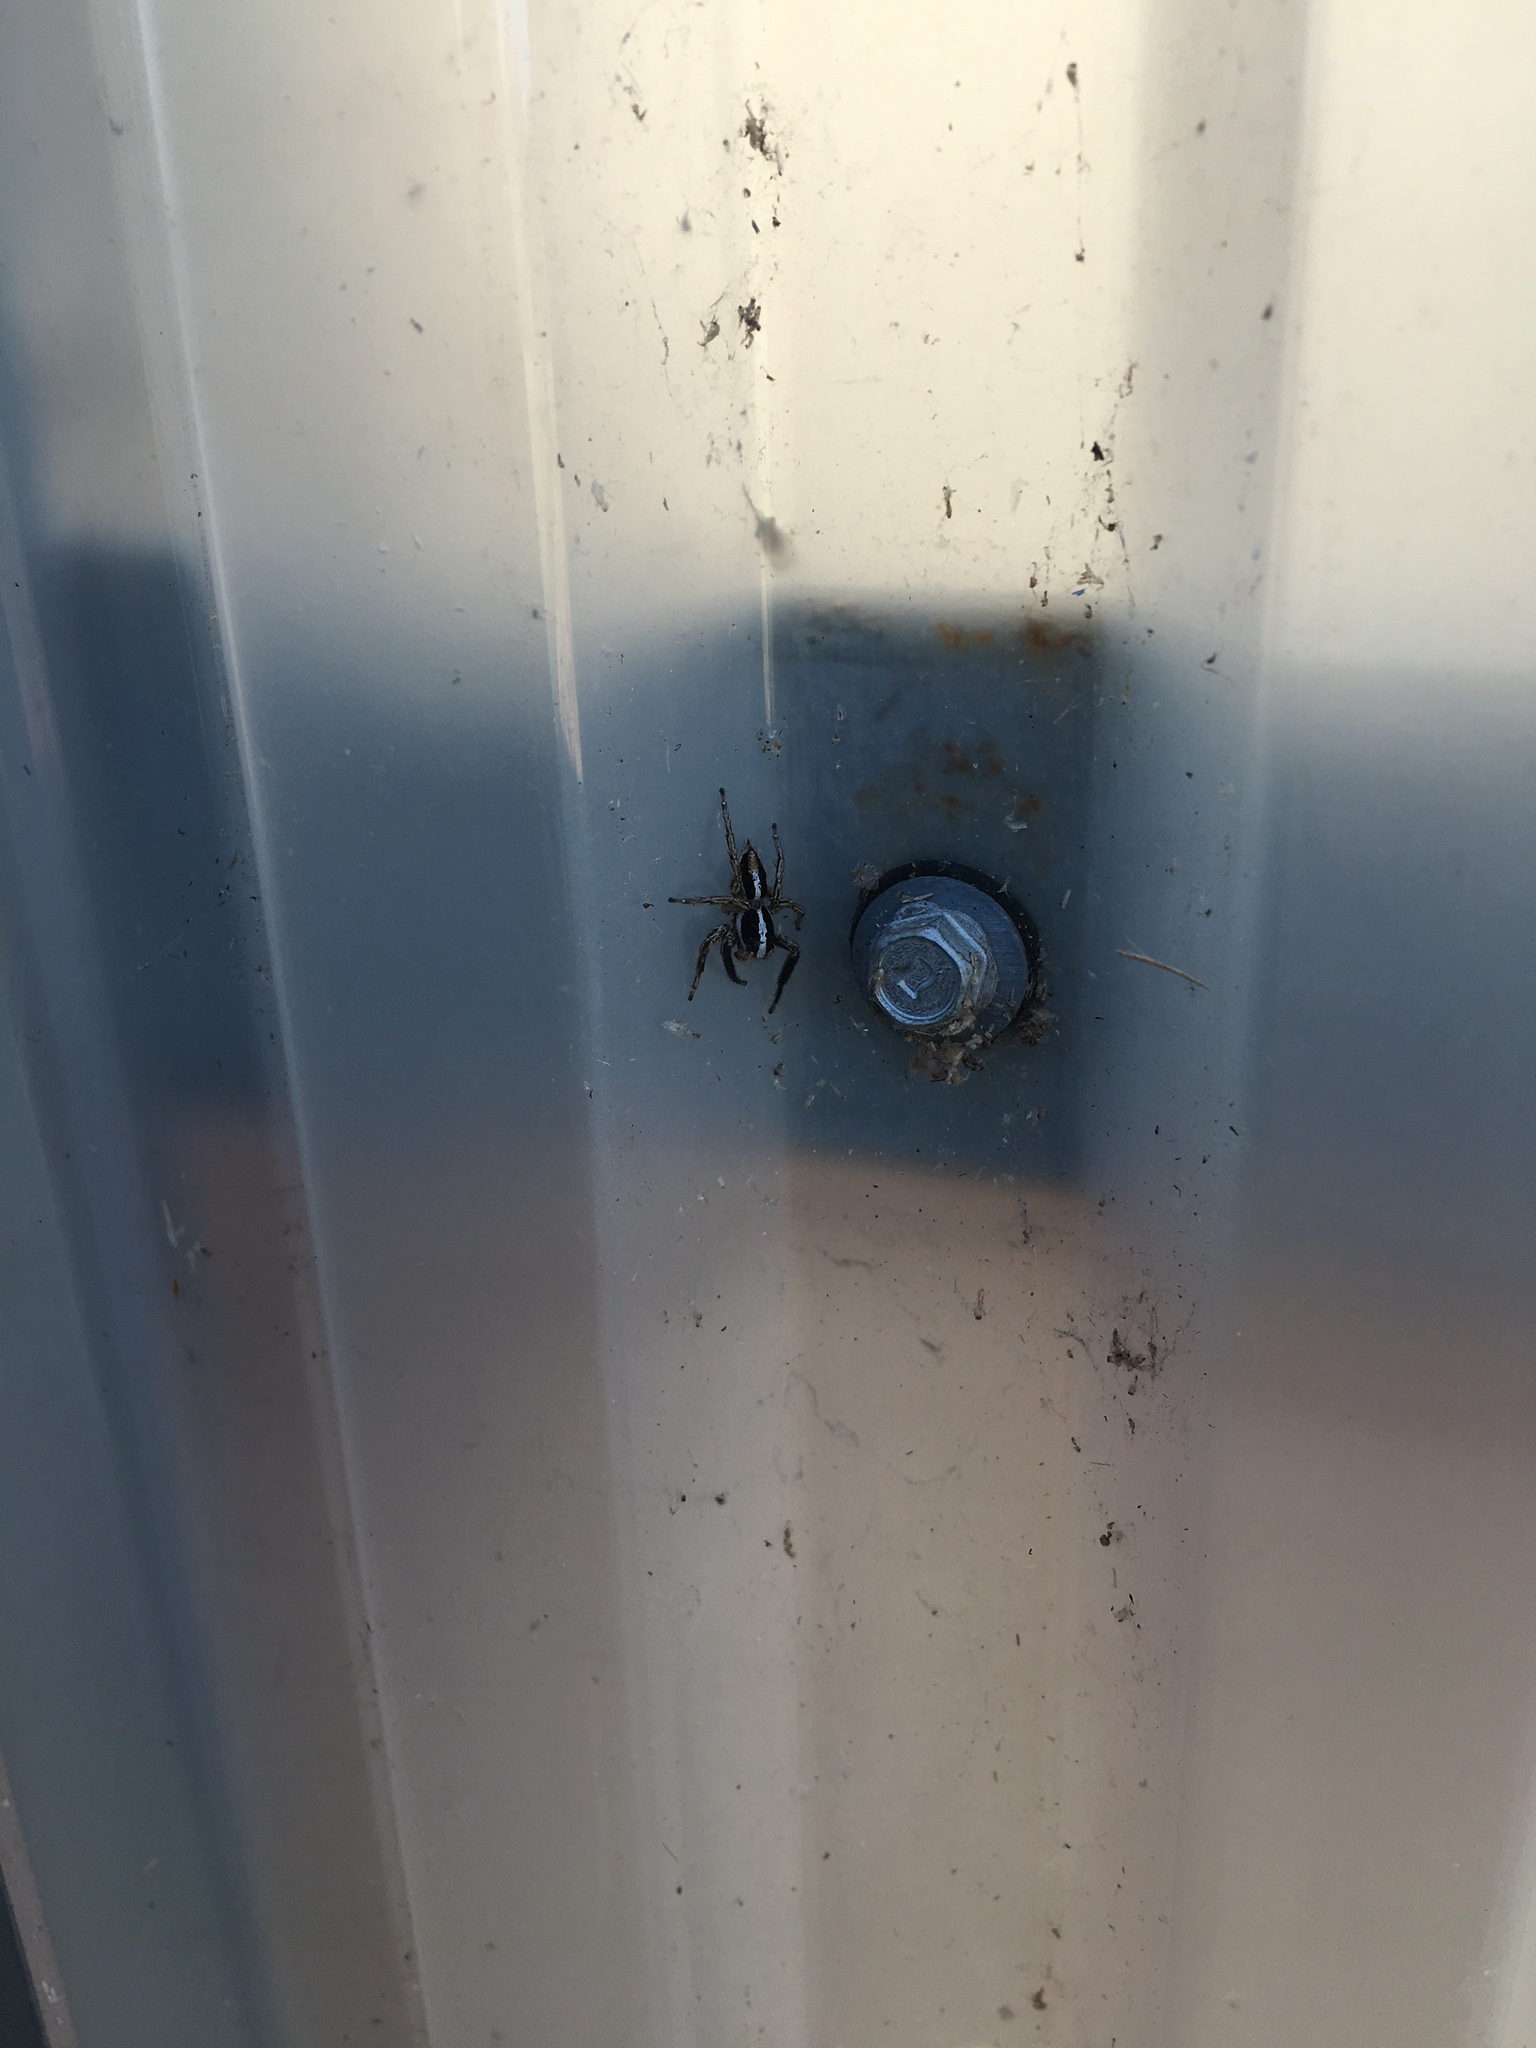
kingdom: Animalia
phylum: Arthropoda
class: Arachnida
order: Araneae
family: Salticidae
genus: Plexippus
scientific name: Plexippus paykulli
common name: Pantropical jumper
